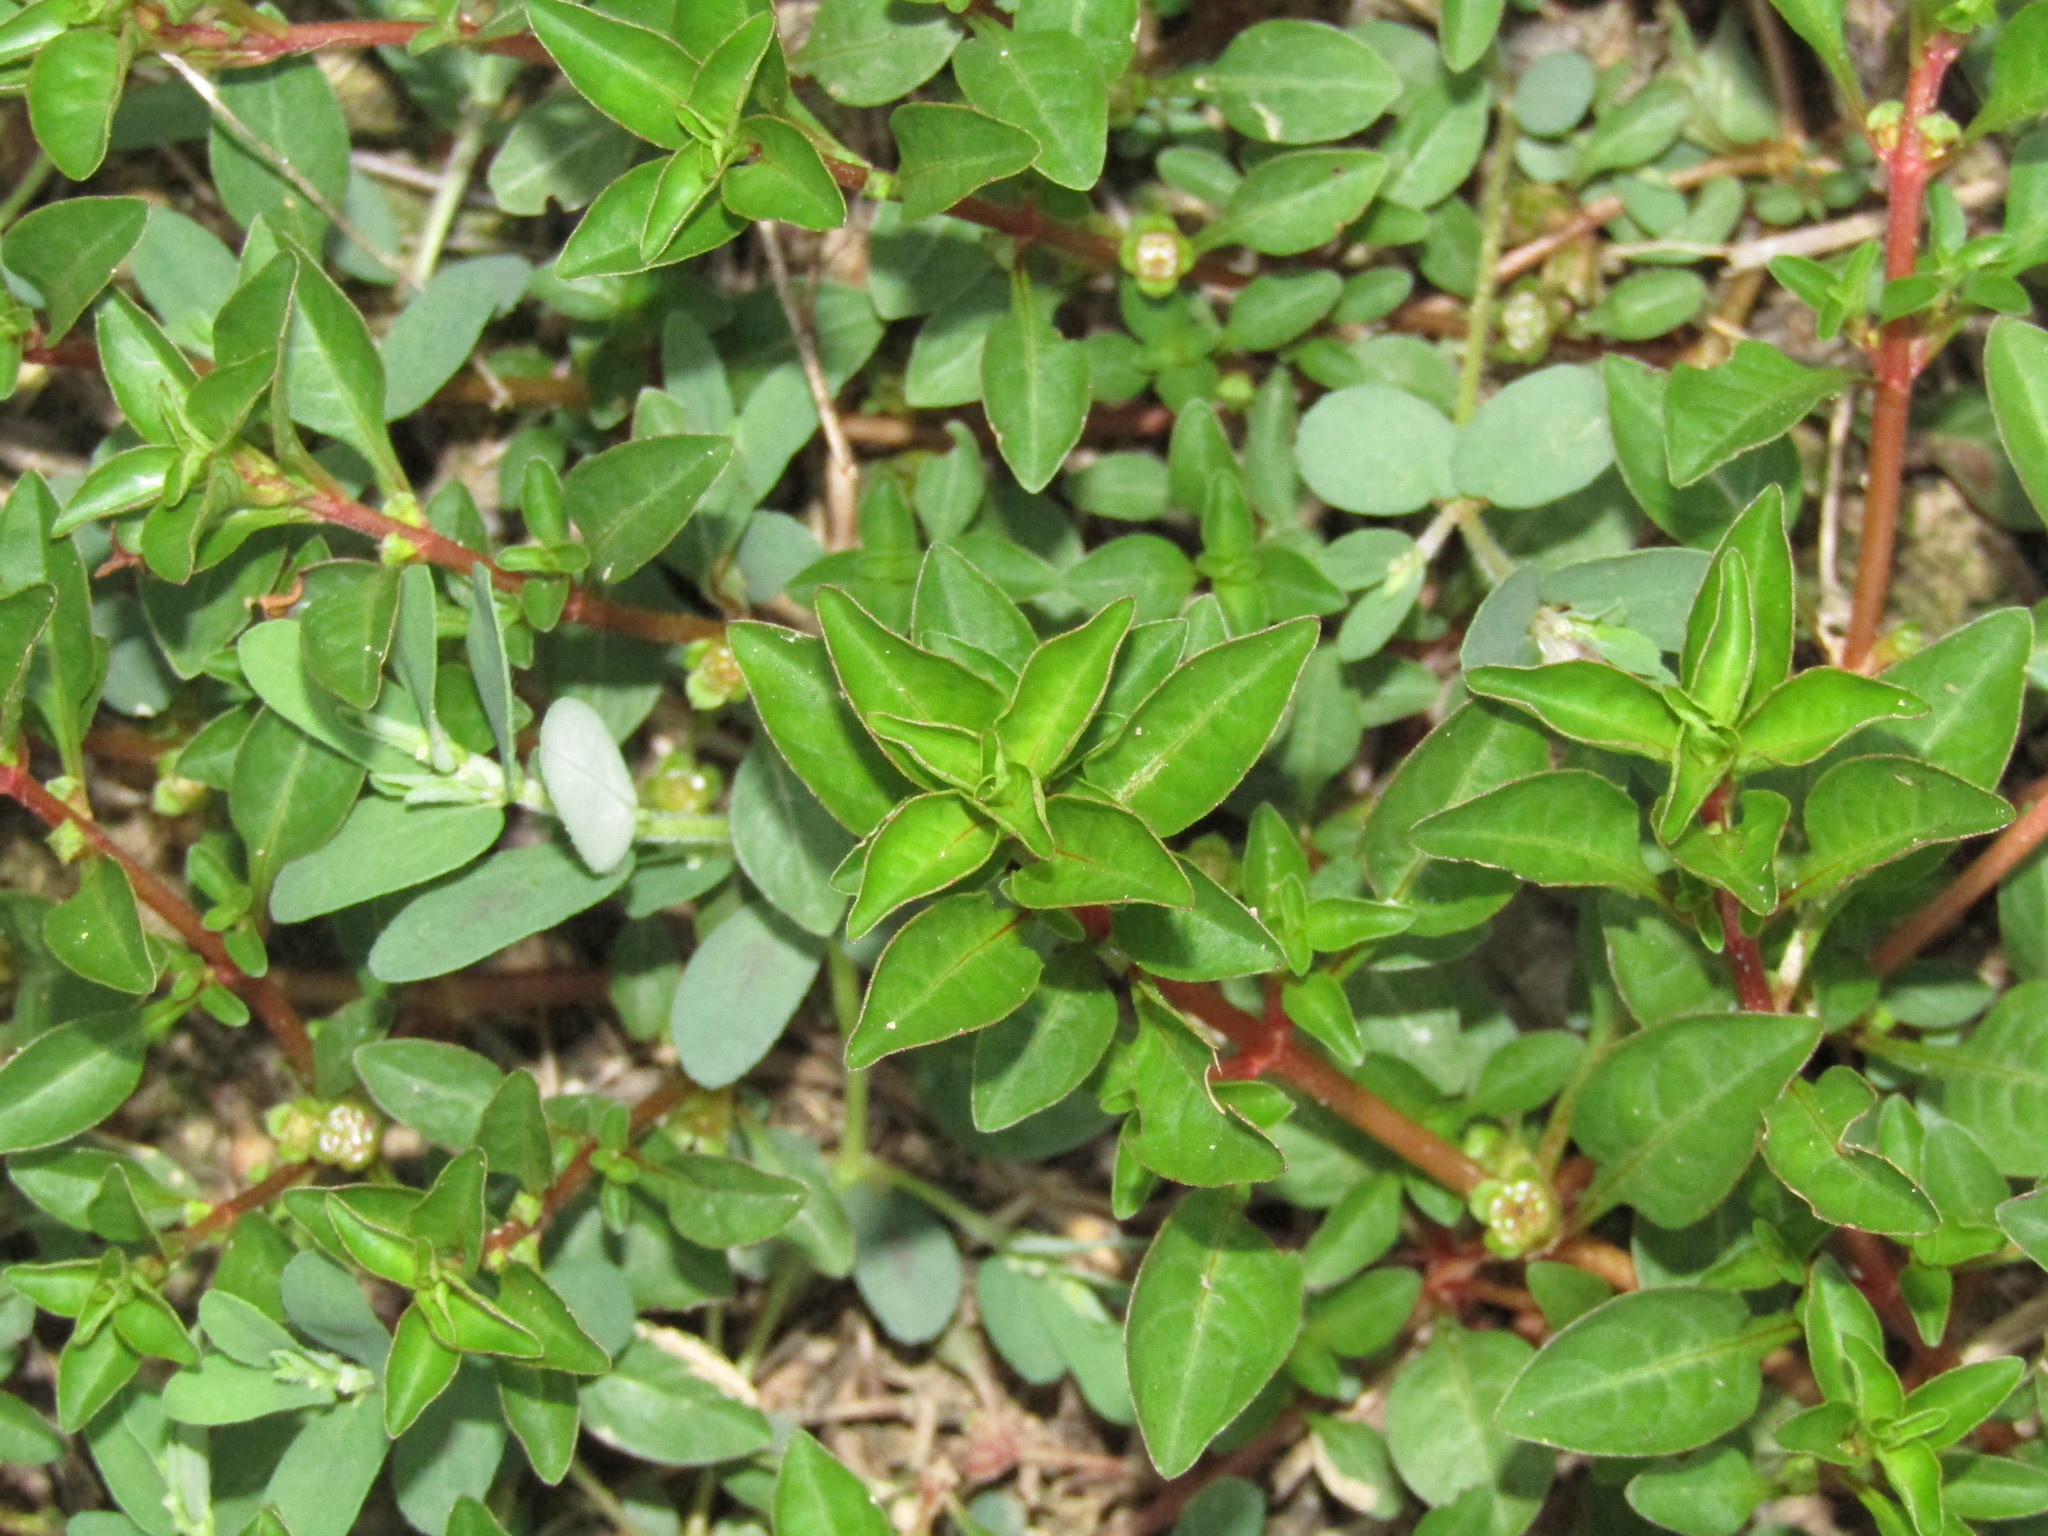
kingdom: Plantae
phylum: Tracheophyta
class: Magnoliopsida
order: Myrtales
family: Onagraceae
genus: Ludwigia
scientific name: Ludwigia palustris
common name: Hampshire-purslane
